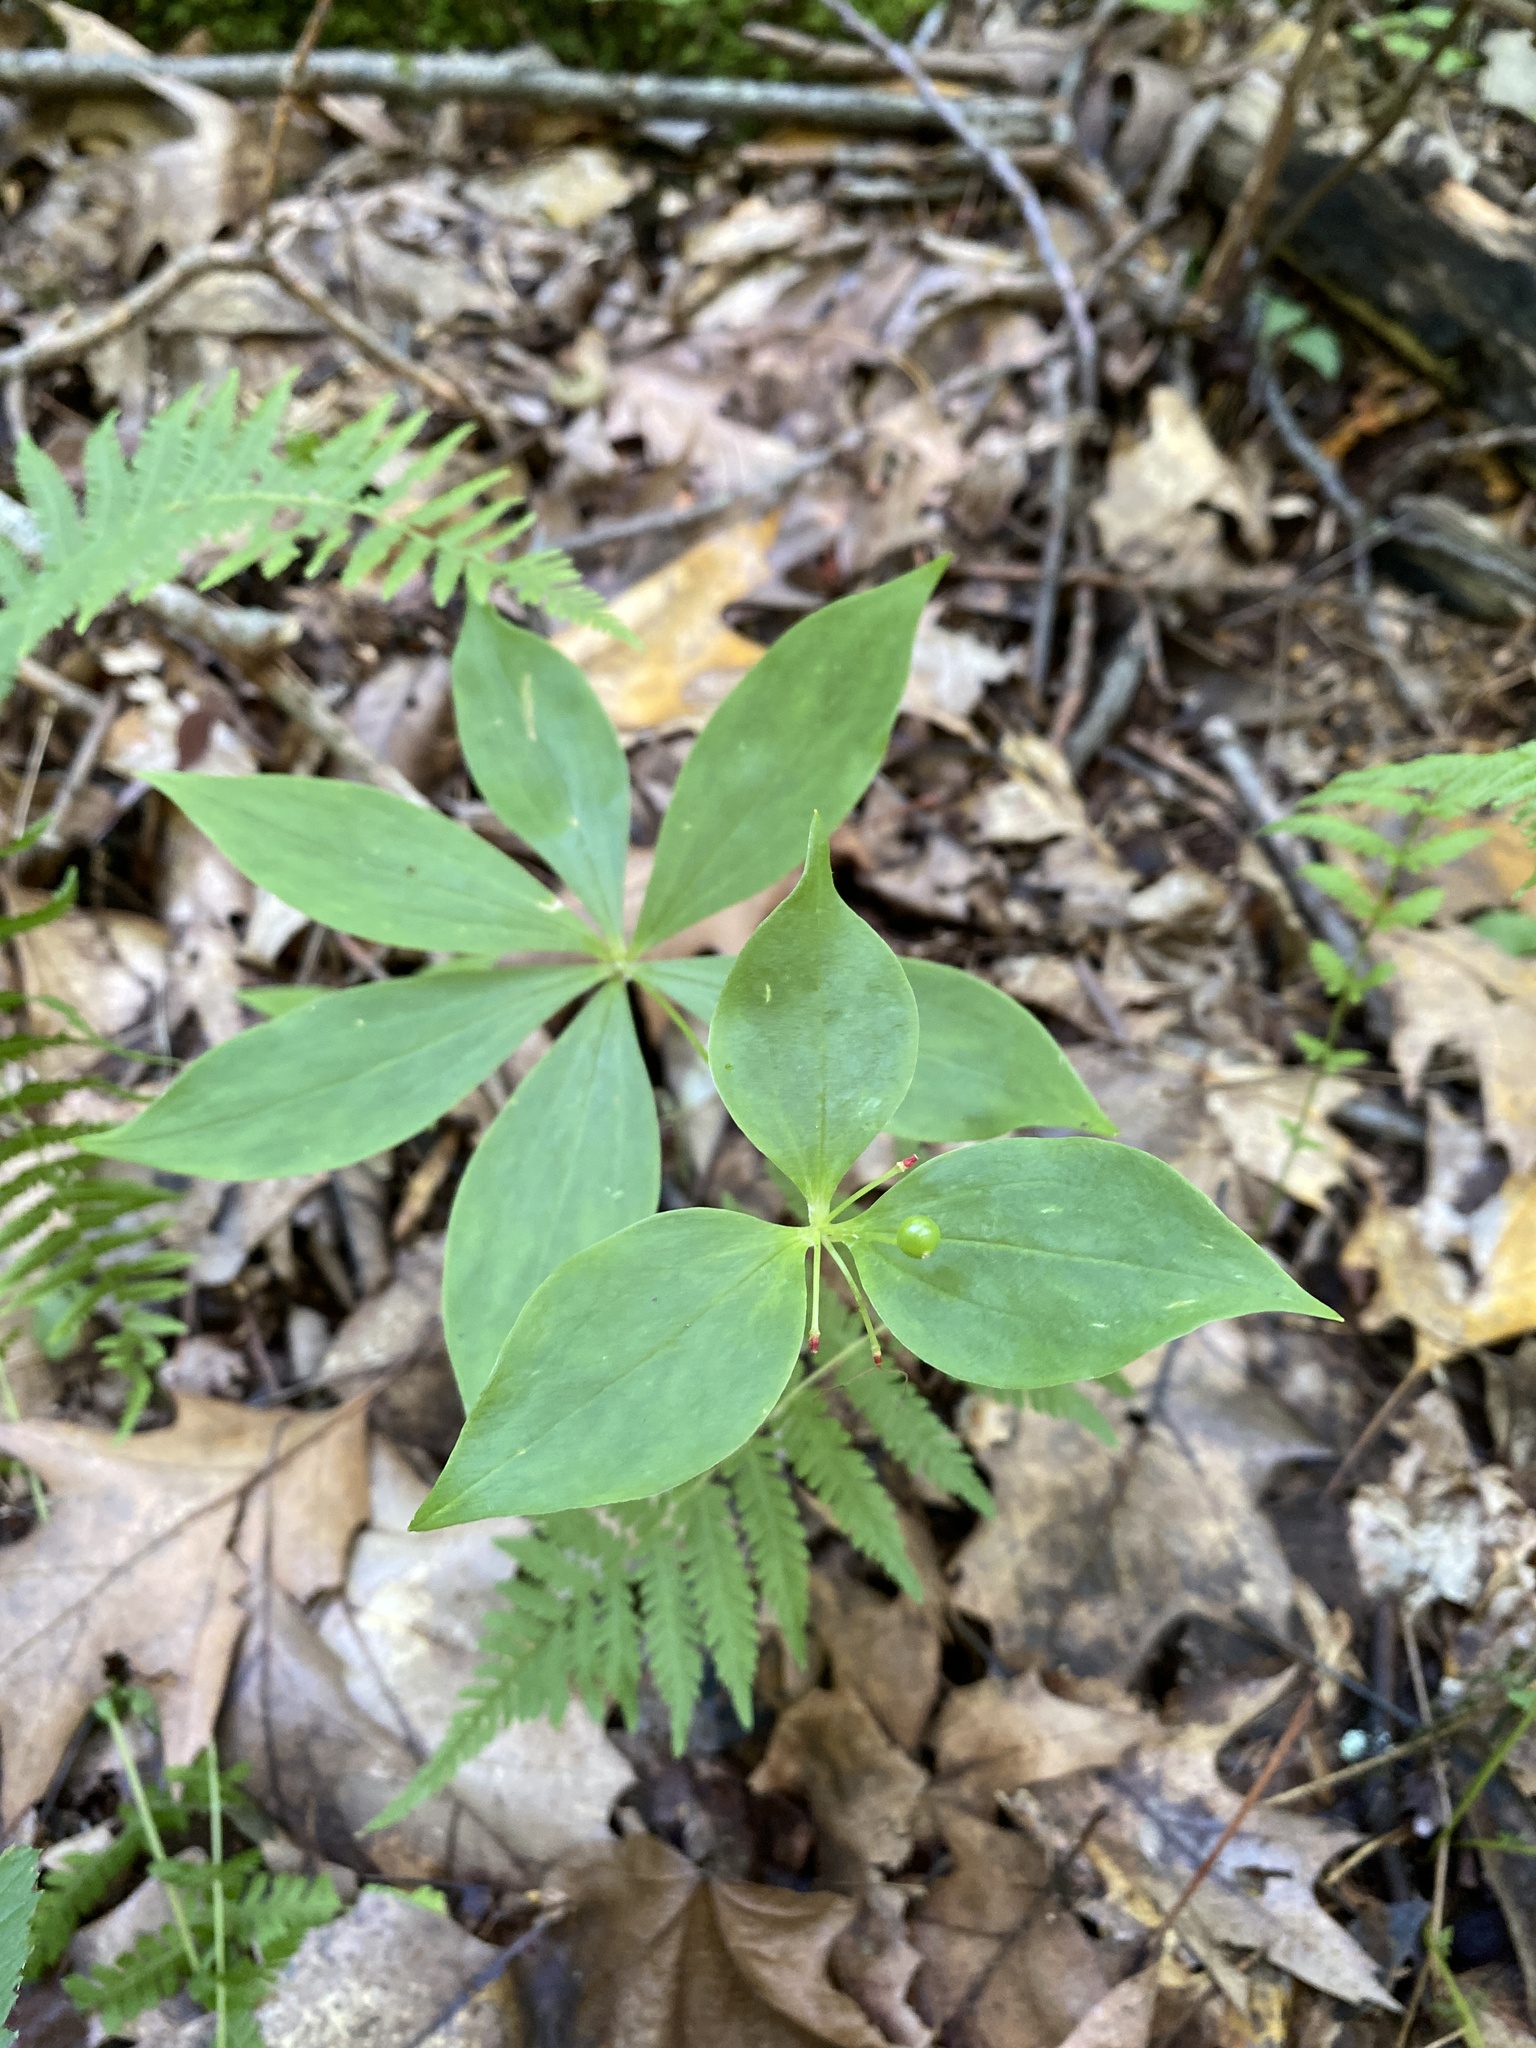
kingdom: Plantae
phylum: Tracheophyta
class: Liliopsida
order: Liliales
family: Liliaceae
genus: Medeola
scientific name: Medeola virginiana
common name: Indian cucumber-root
